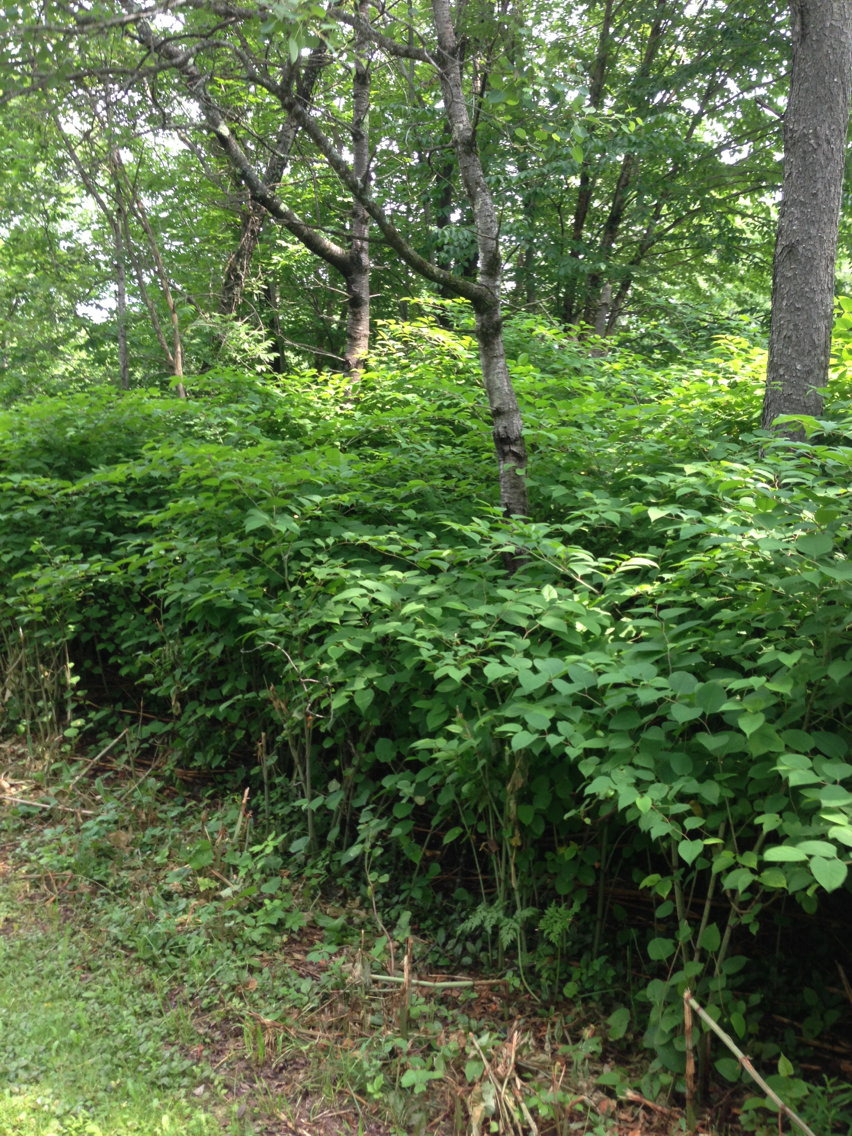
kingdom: Plantae
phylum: Tracheophyta
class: Magnoliopsida
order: Caryophyllales
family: Polygonaceae
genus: Reynoutria
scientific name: Reynoutria japonica
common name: Japanese knotweed
